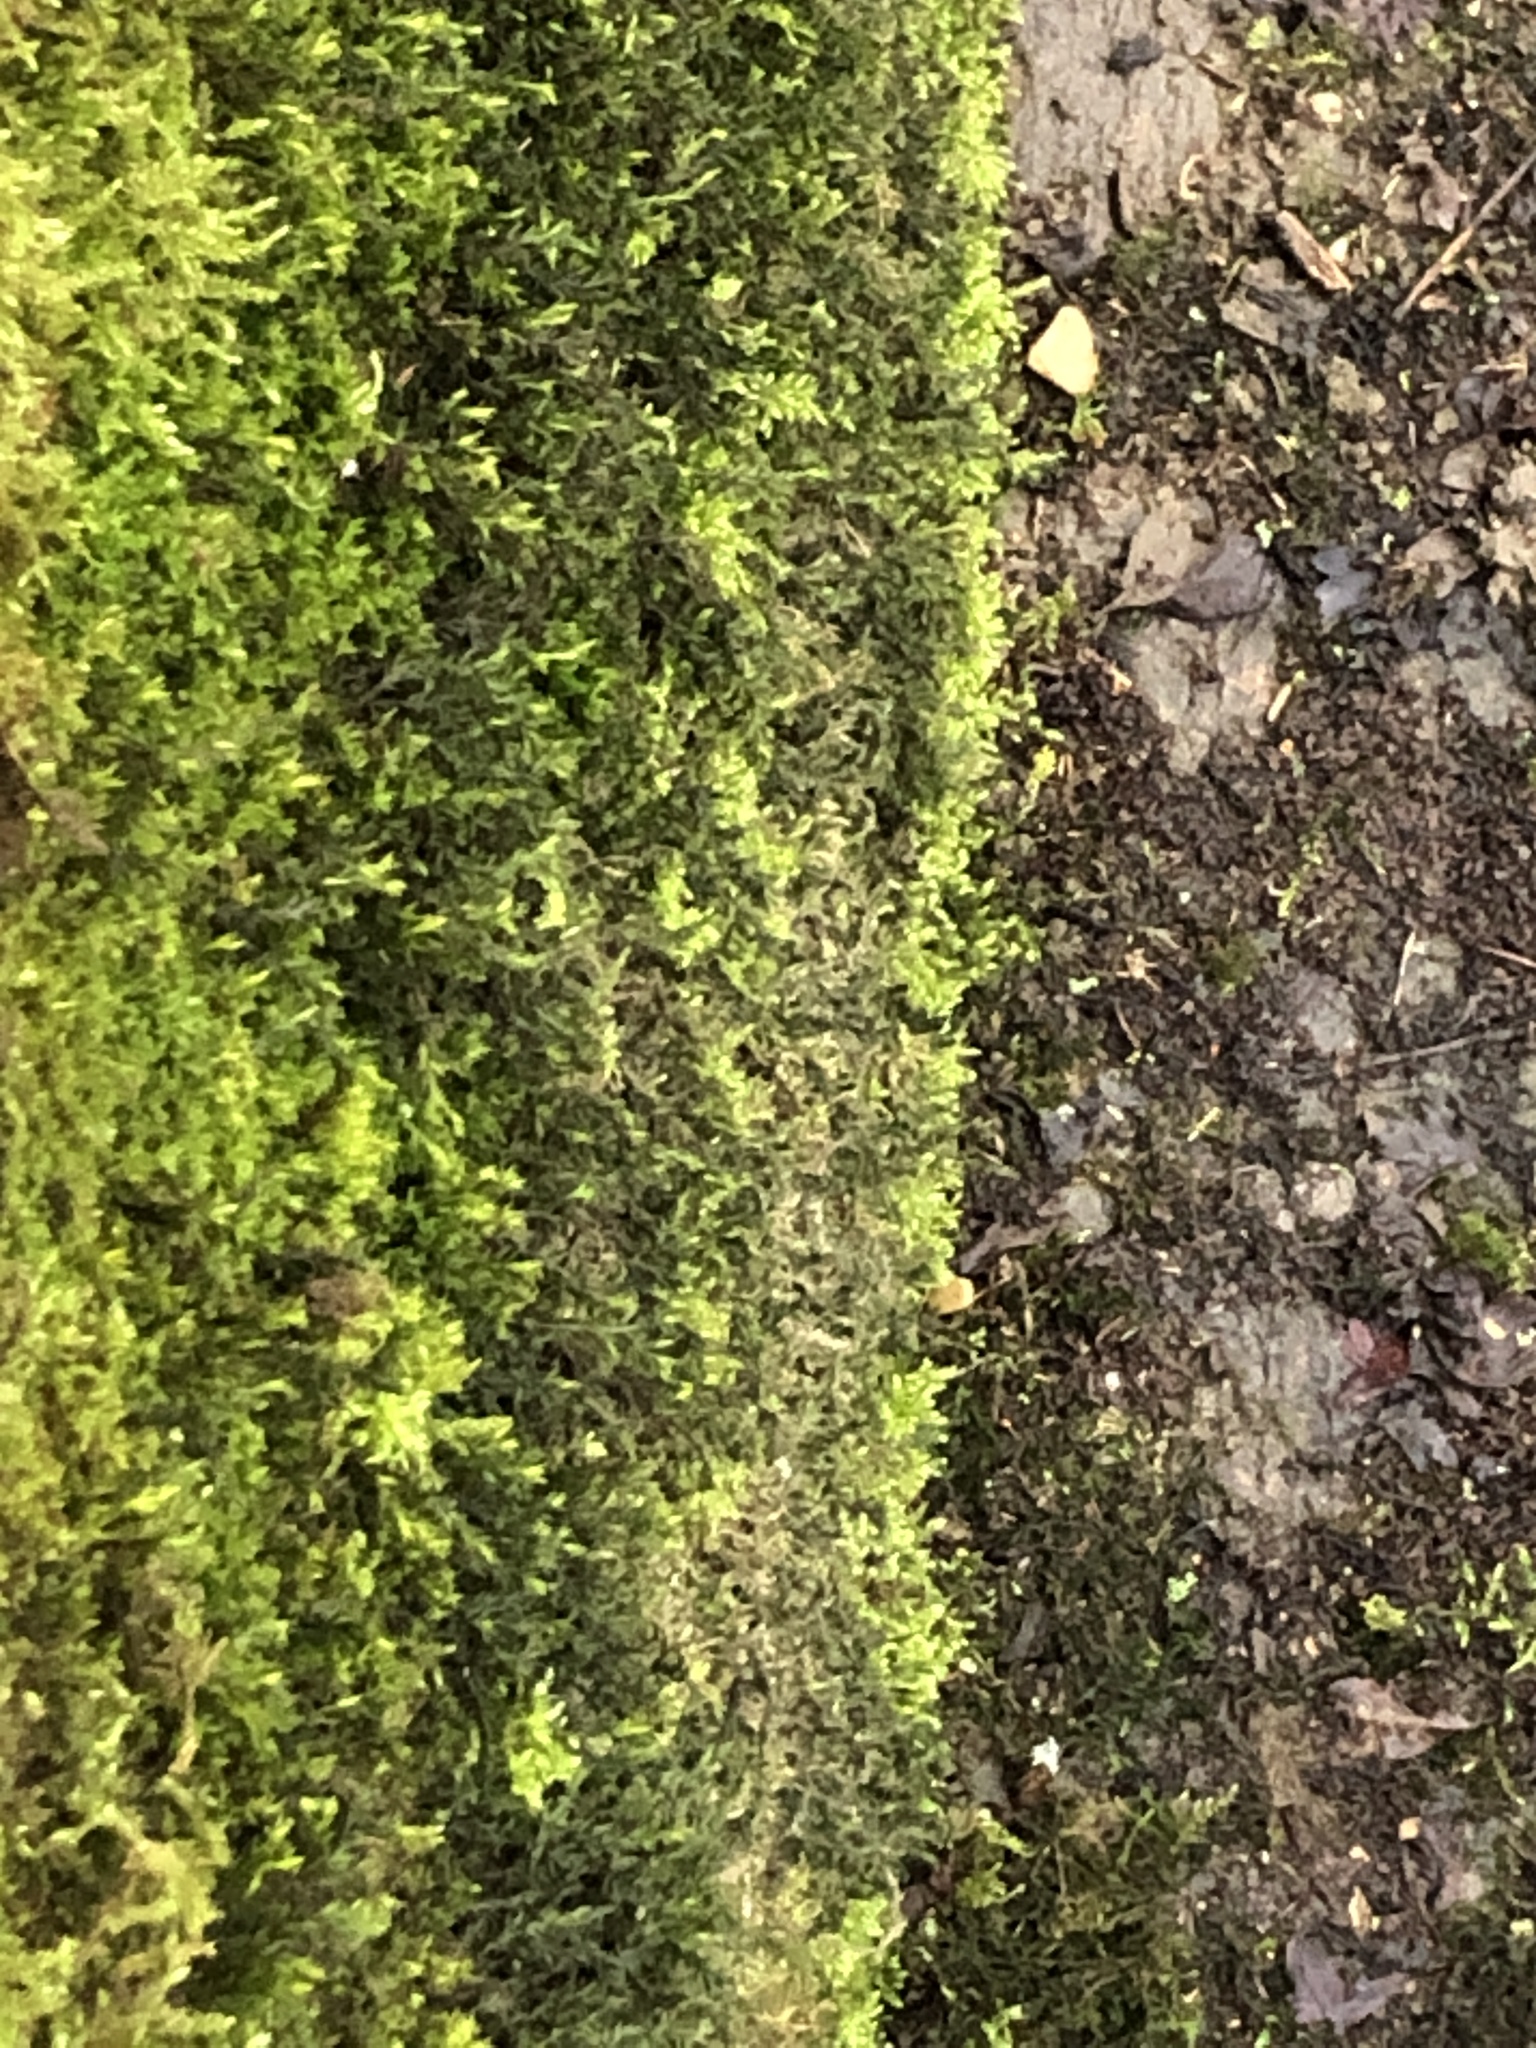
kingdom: Plantae
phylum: Bryophyta
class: Bryopsida
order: Pottiales
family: Pottiaceae
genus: Cinclidotus
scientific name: Cinclidotus fontinaloides
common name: Smaller lattice-moss
